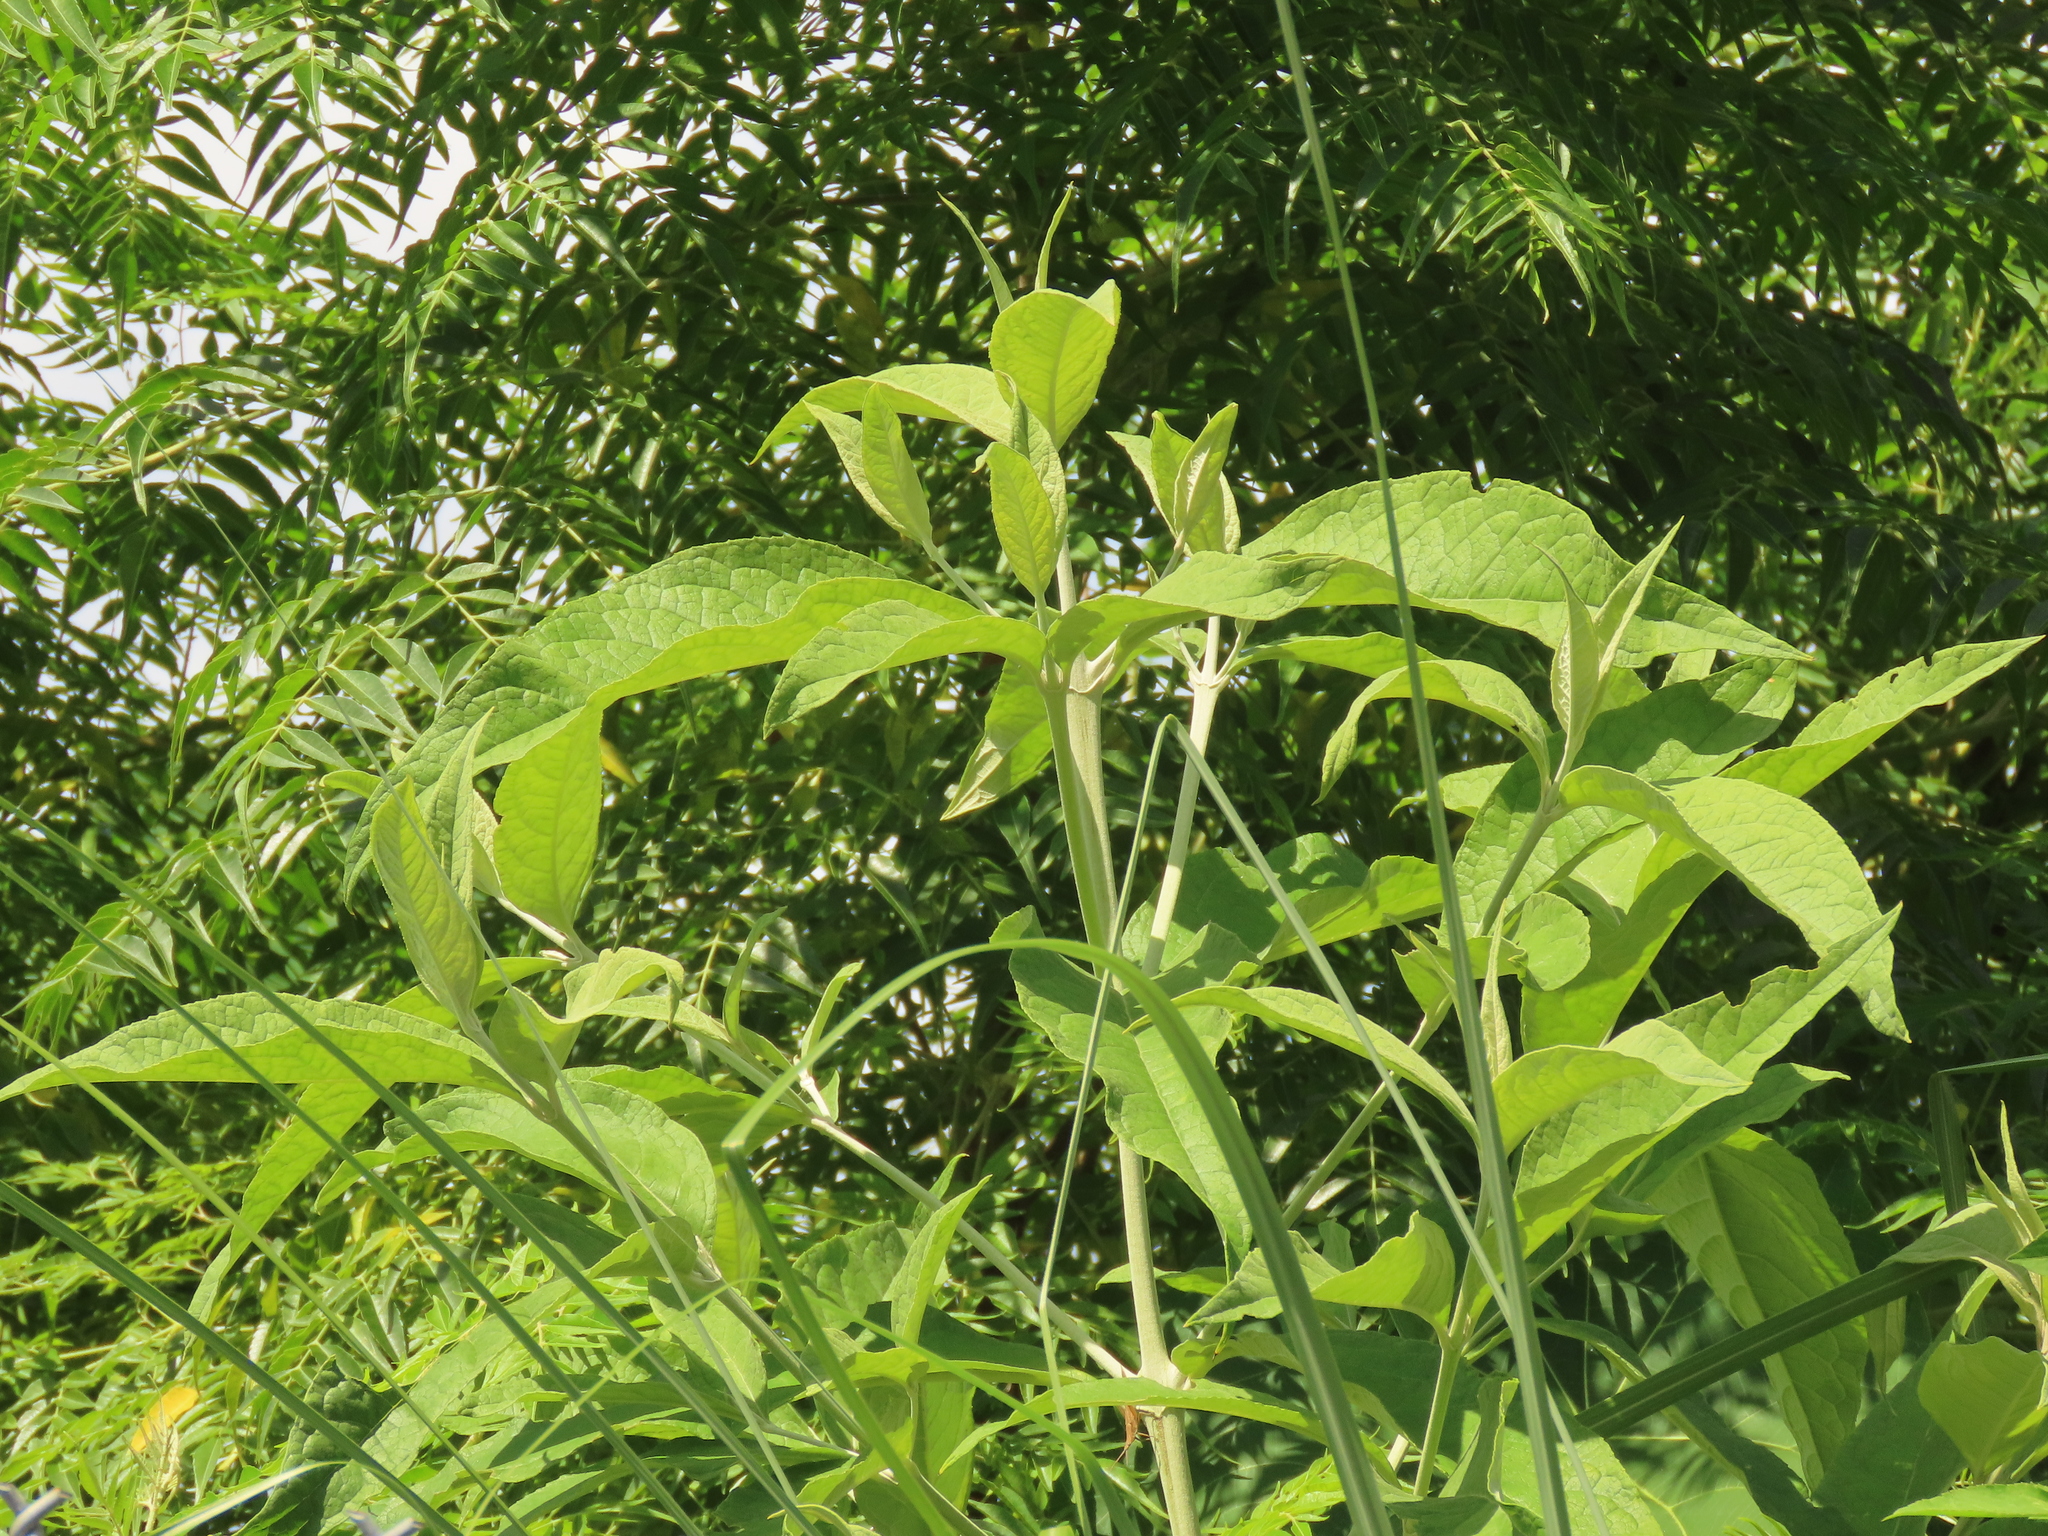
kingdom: Plantae
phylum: Tracheophyta
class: Magnoliopsida
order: Lamiales
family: Scrophulariaceae
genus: Buddleja
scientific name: Buddleja asiatica
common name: Dog tail
